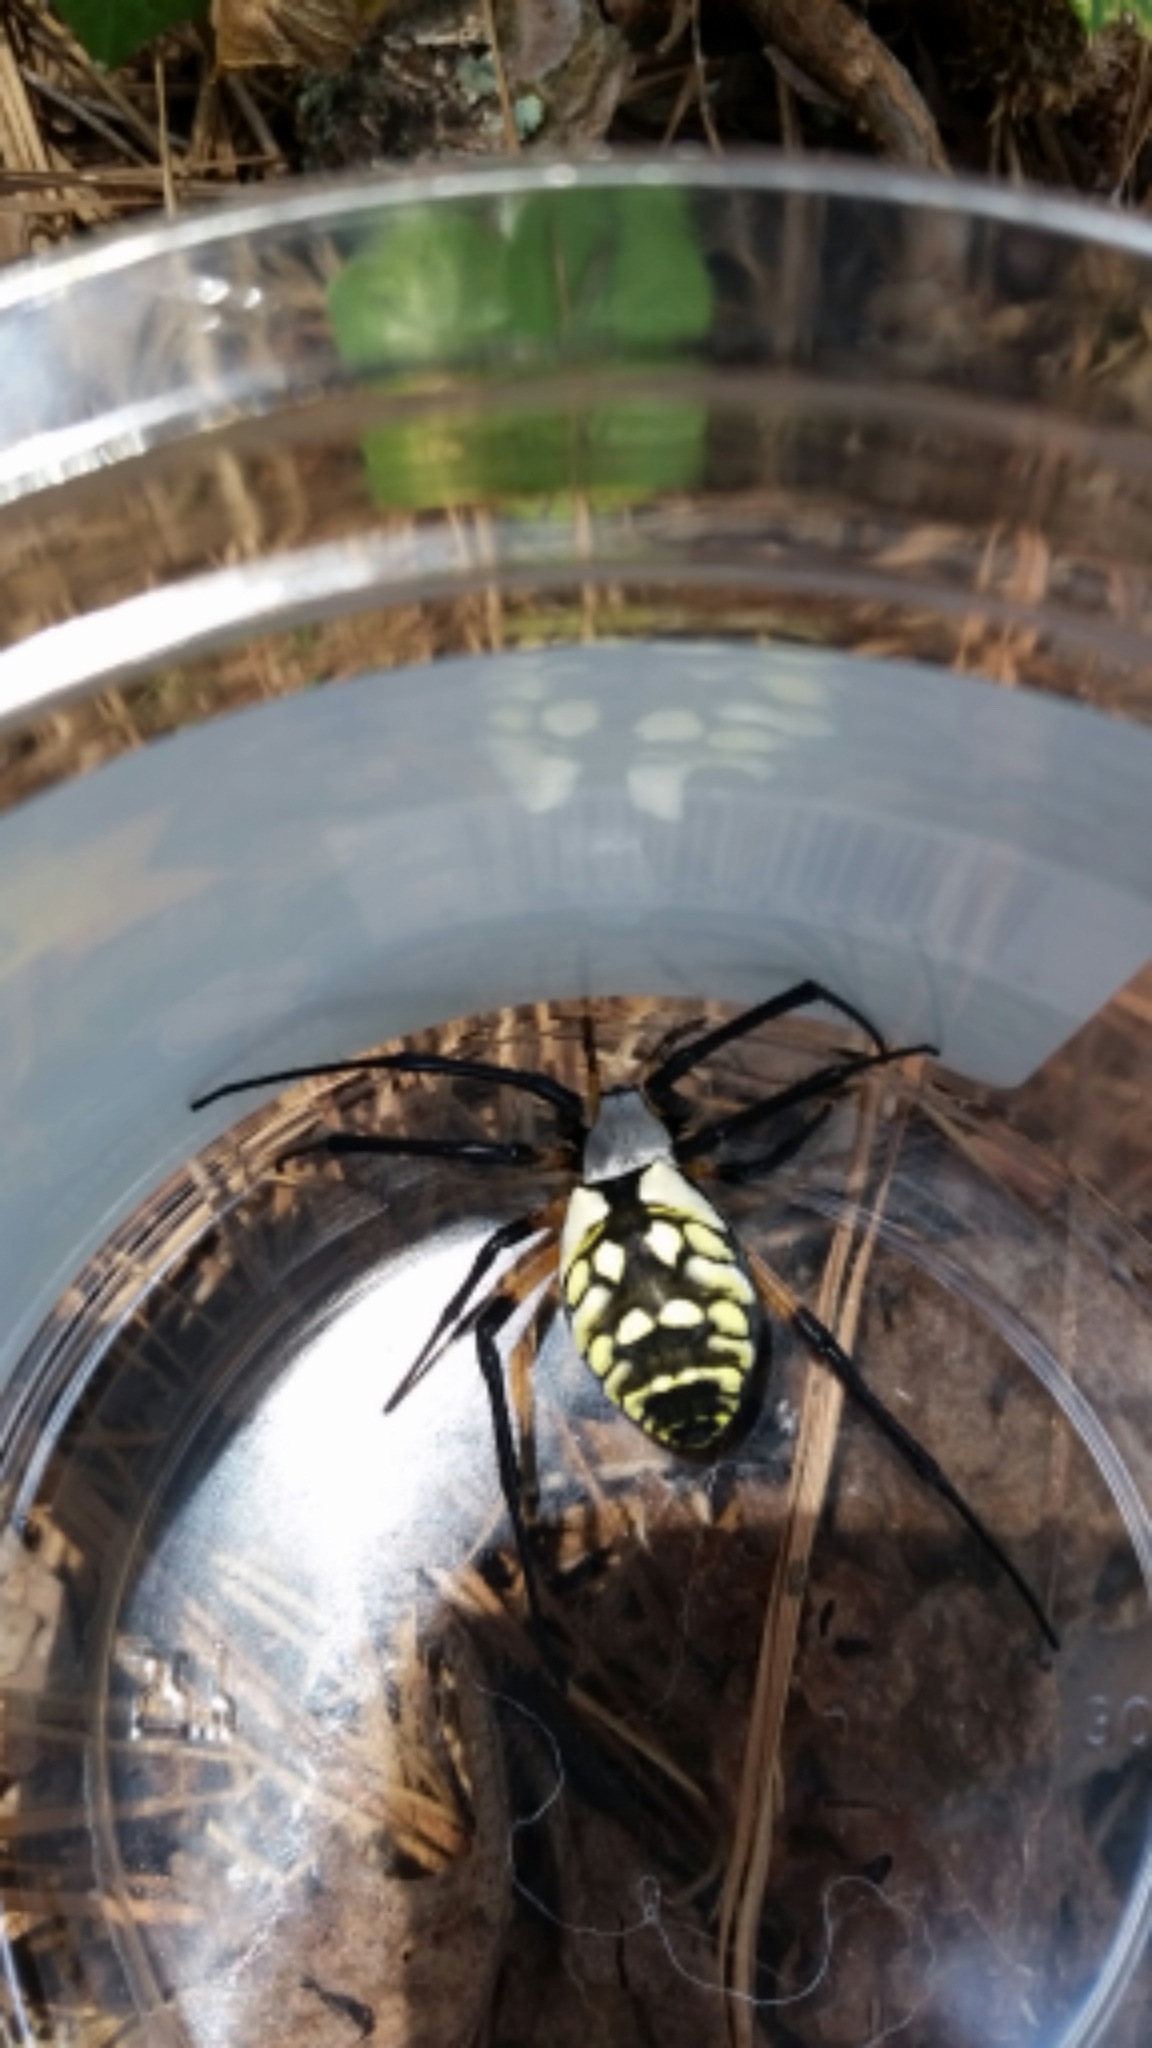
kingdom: Animalia
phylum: Arthropoda
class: Arachnida
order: Araneae
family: Araneidae
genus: Argiope
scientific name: Argiope aurantia
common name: Orb weavers
